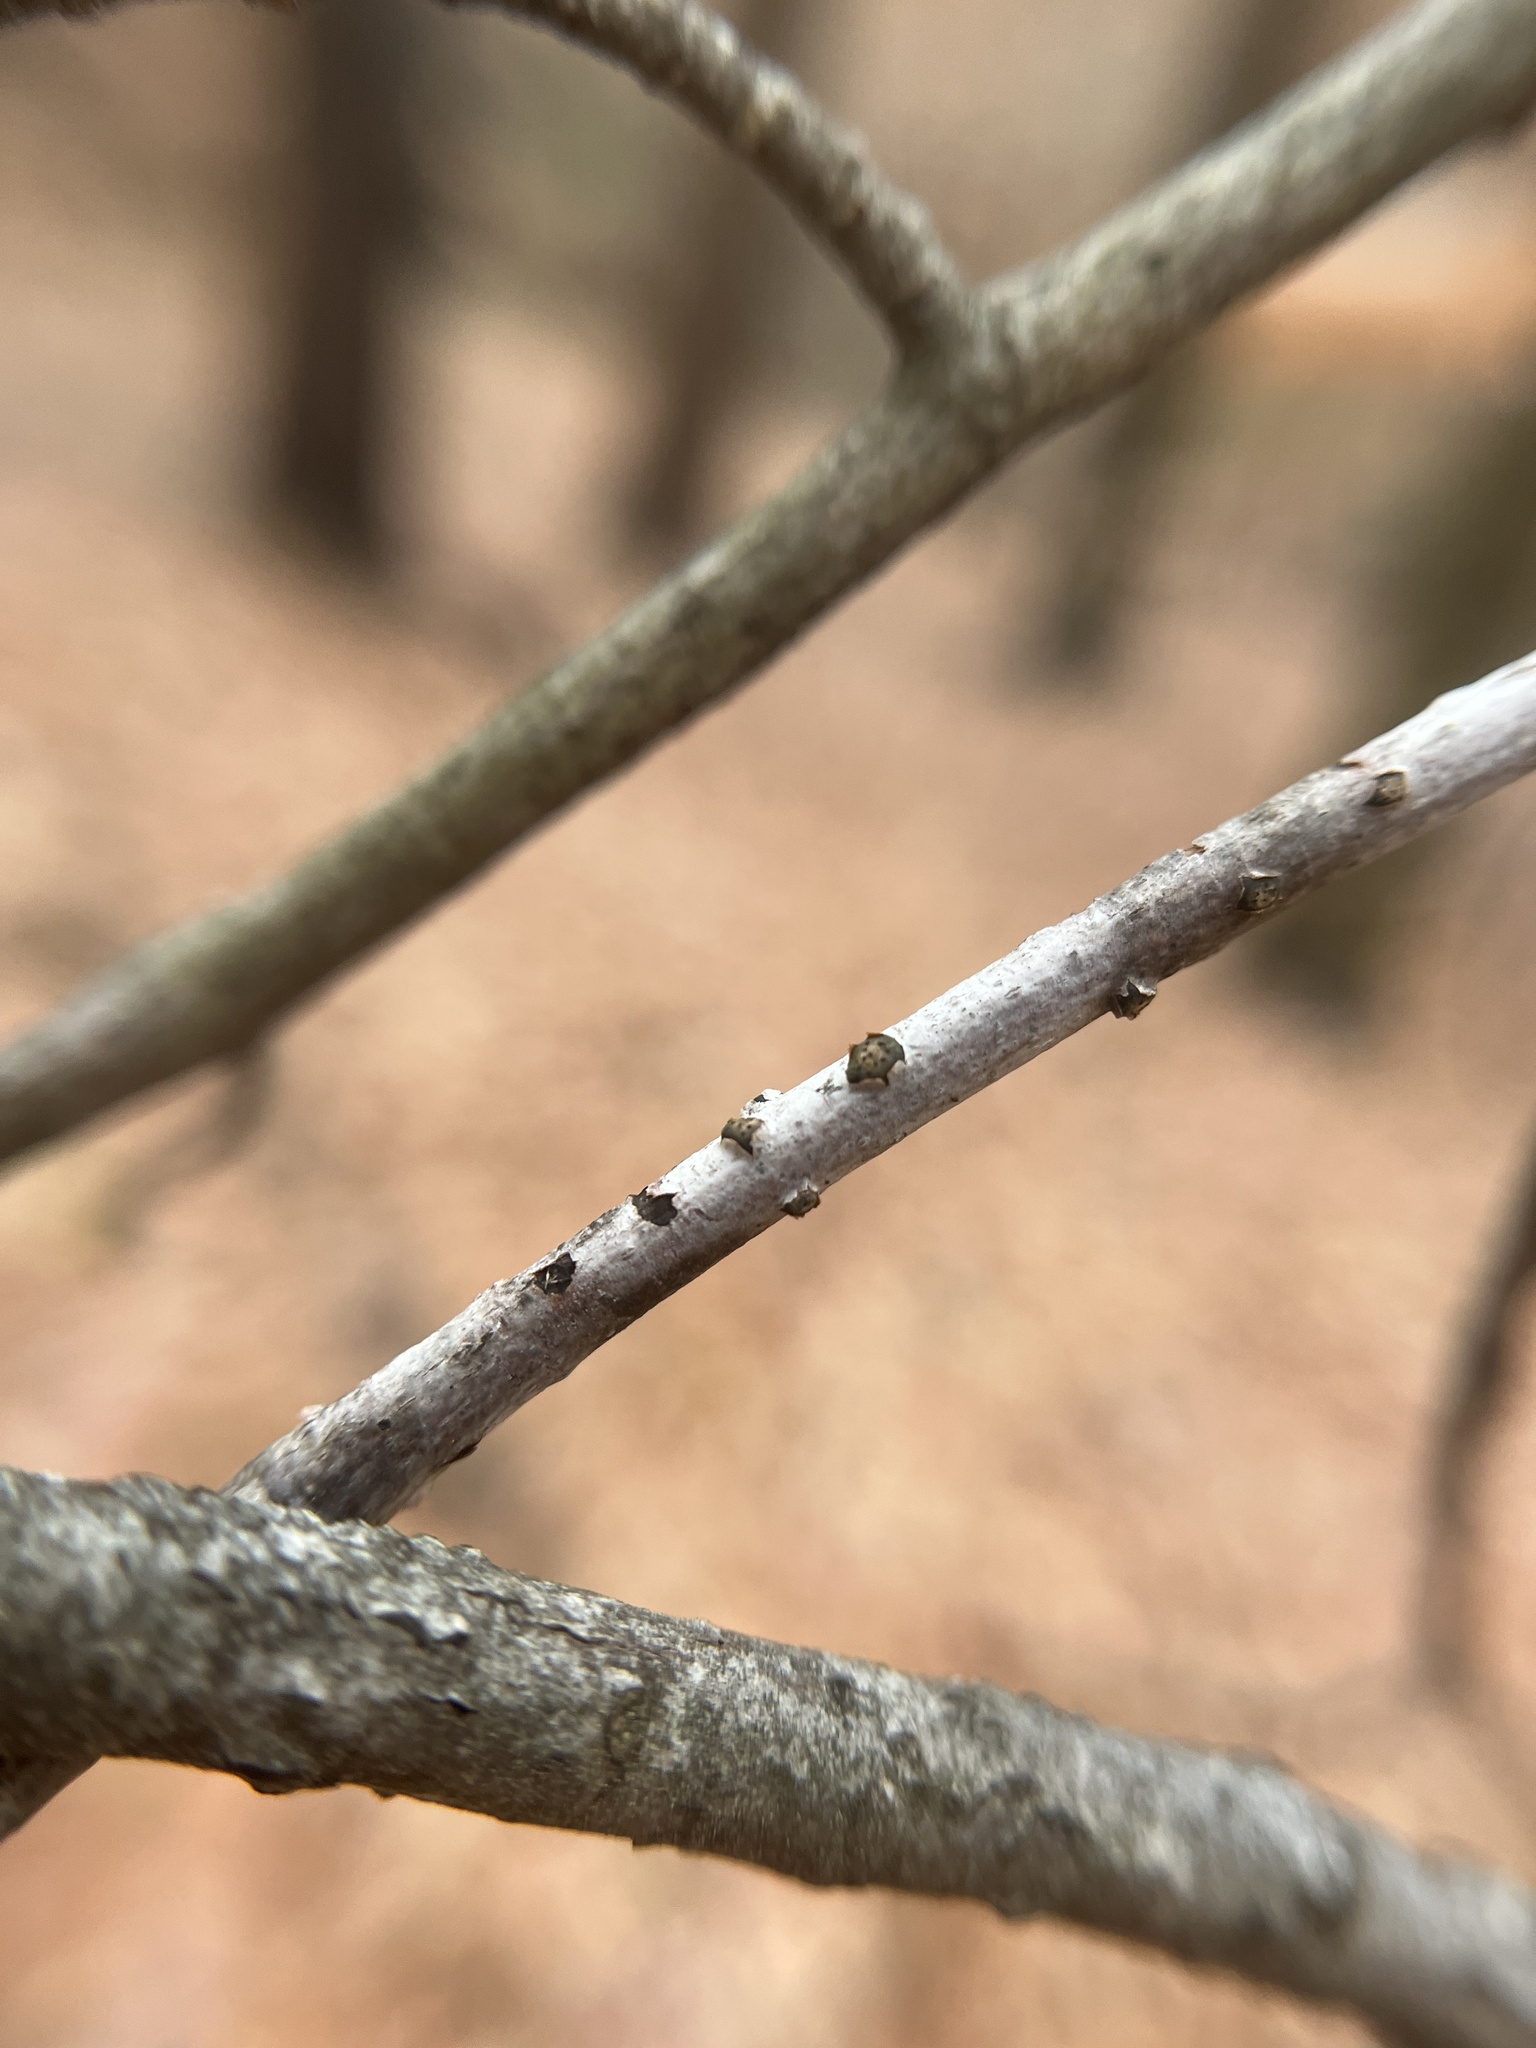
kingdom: Fungi
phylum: Ascomycota
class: Sordariomycetes
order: Xylariales
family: Diatrypaceae
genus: Diatrype
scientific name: Diatrype virescens
